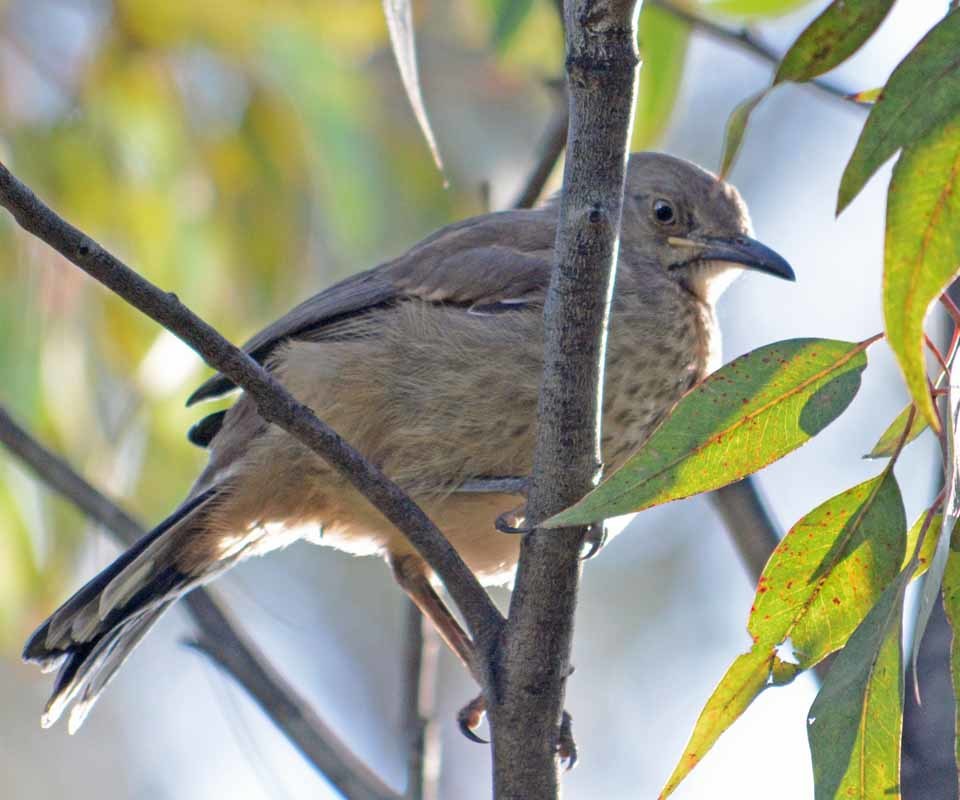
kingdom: Animalia
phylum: Chordata
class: Aves
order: Passeriformes
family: Mimidae
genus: Toxostoma
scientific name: Toxostoma curvirostre
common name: Curve-billed thrasher
